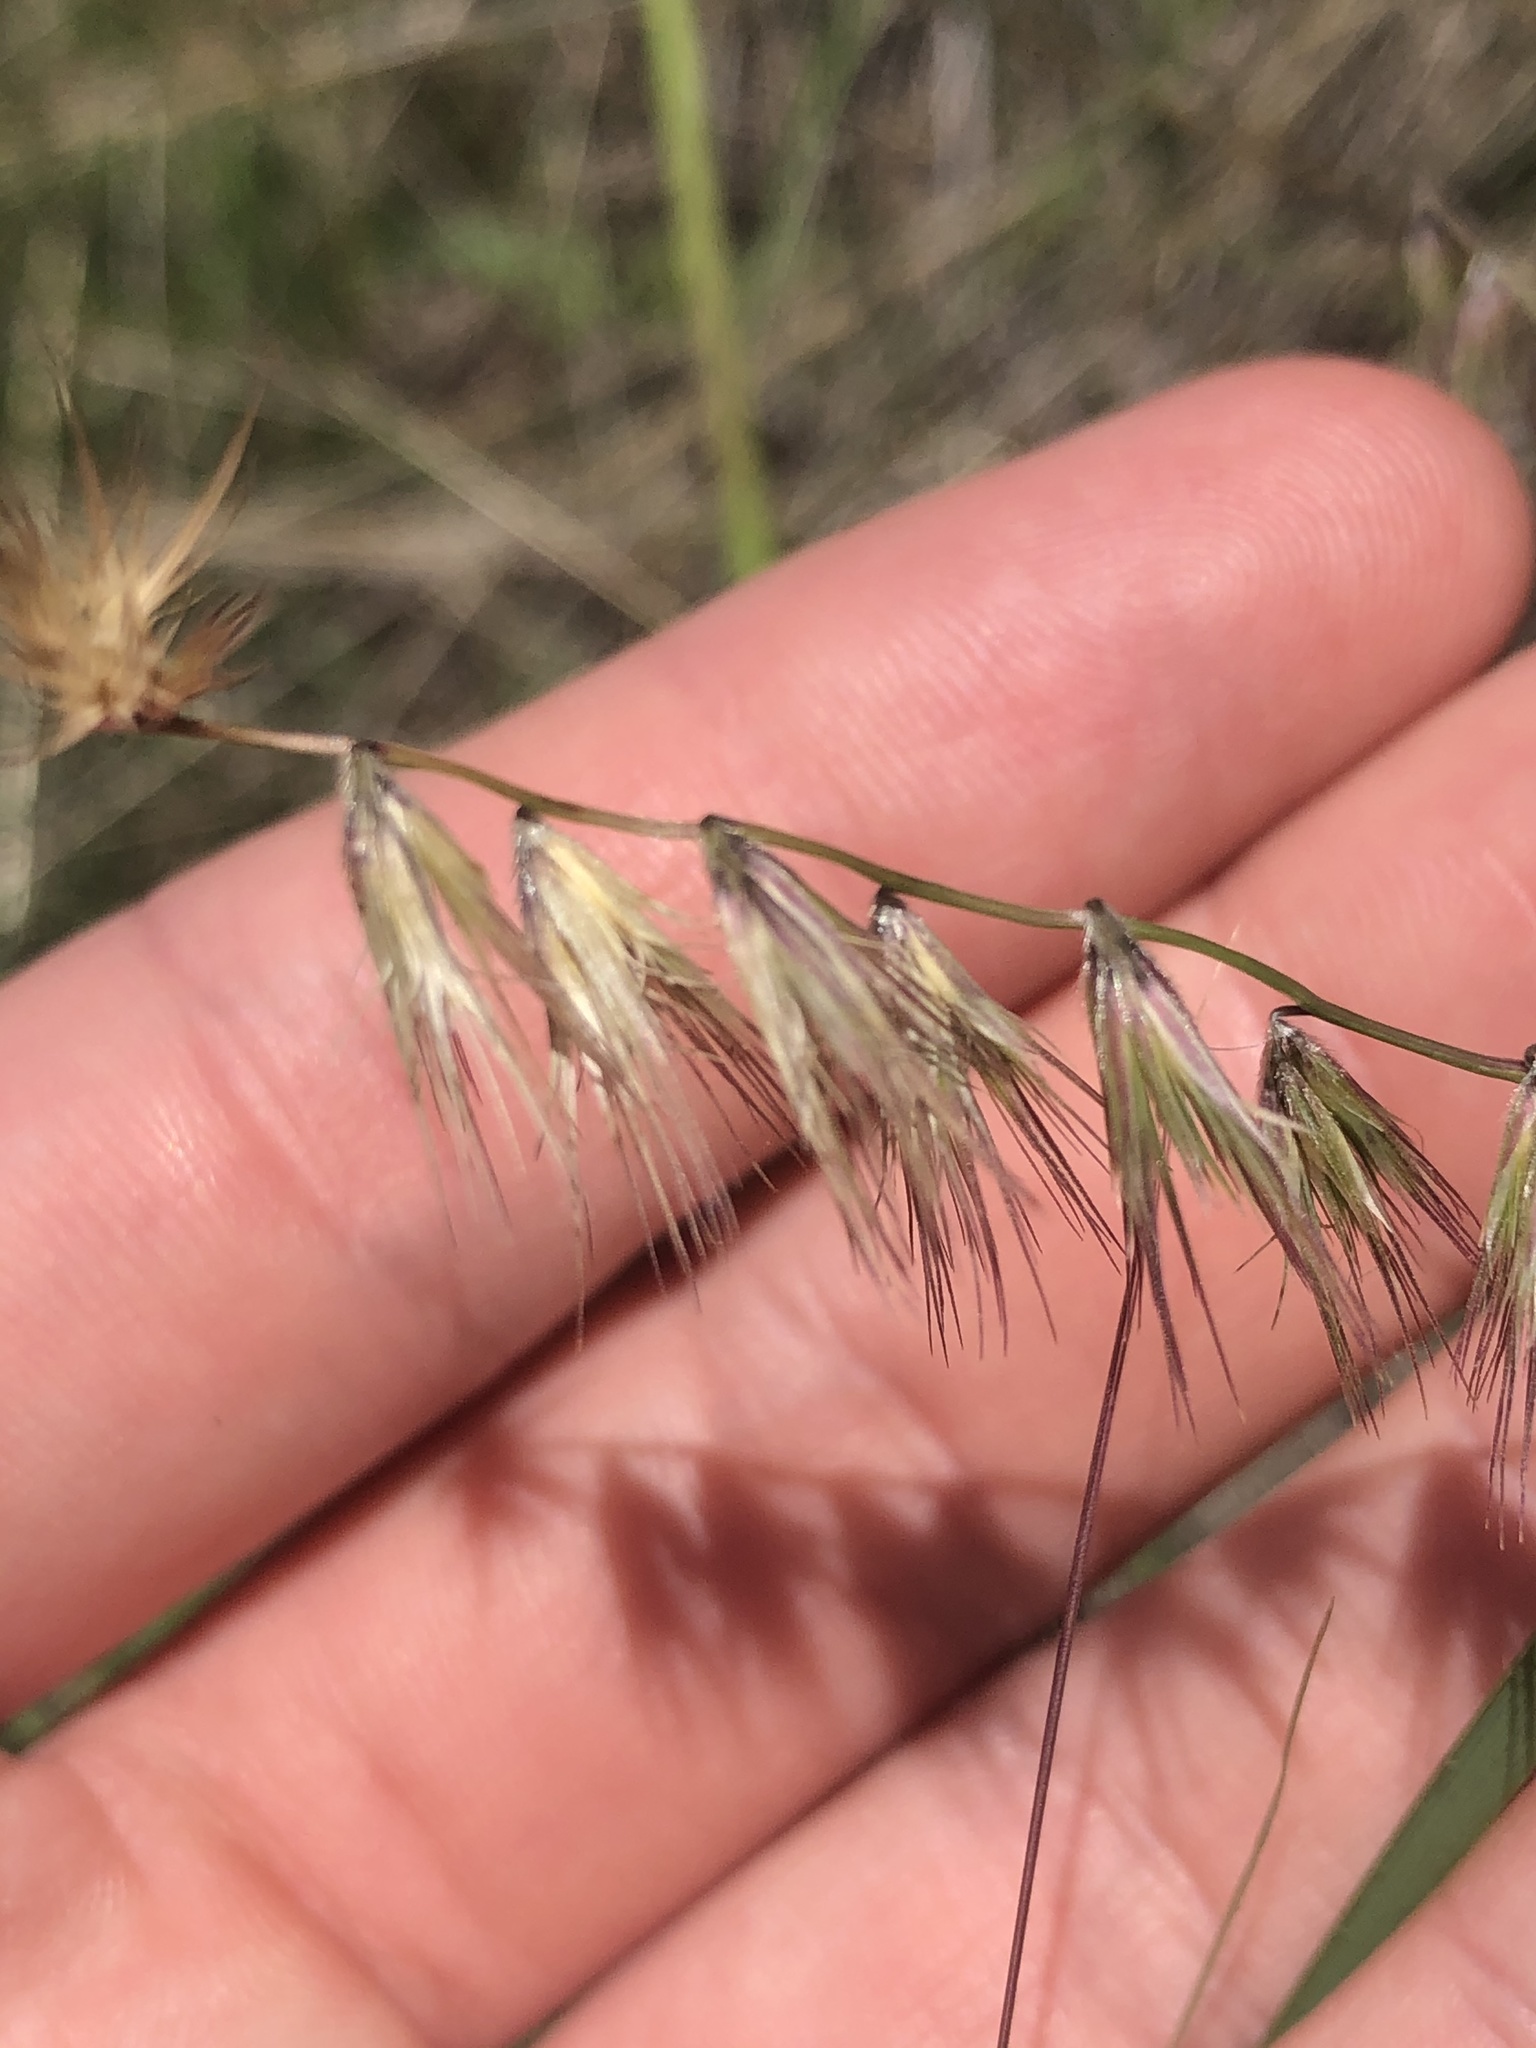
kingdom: Plantae
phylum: Tracheophyta
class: Liliopsida
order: Poales
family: Poaceae
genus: Bouteloua
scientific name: Bouteloua rigidiseta
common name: Texas grama
